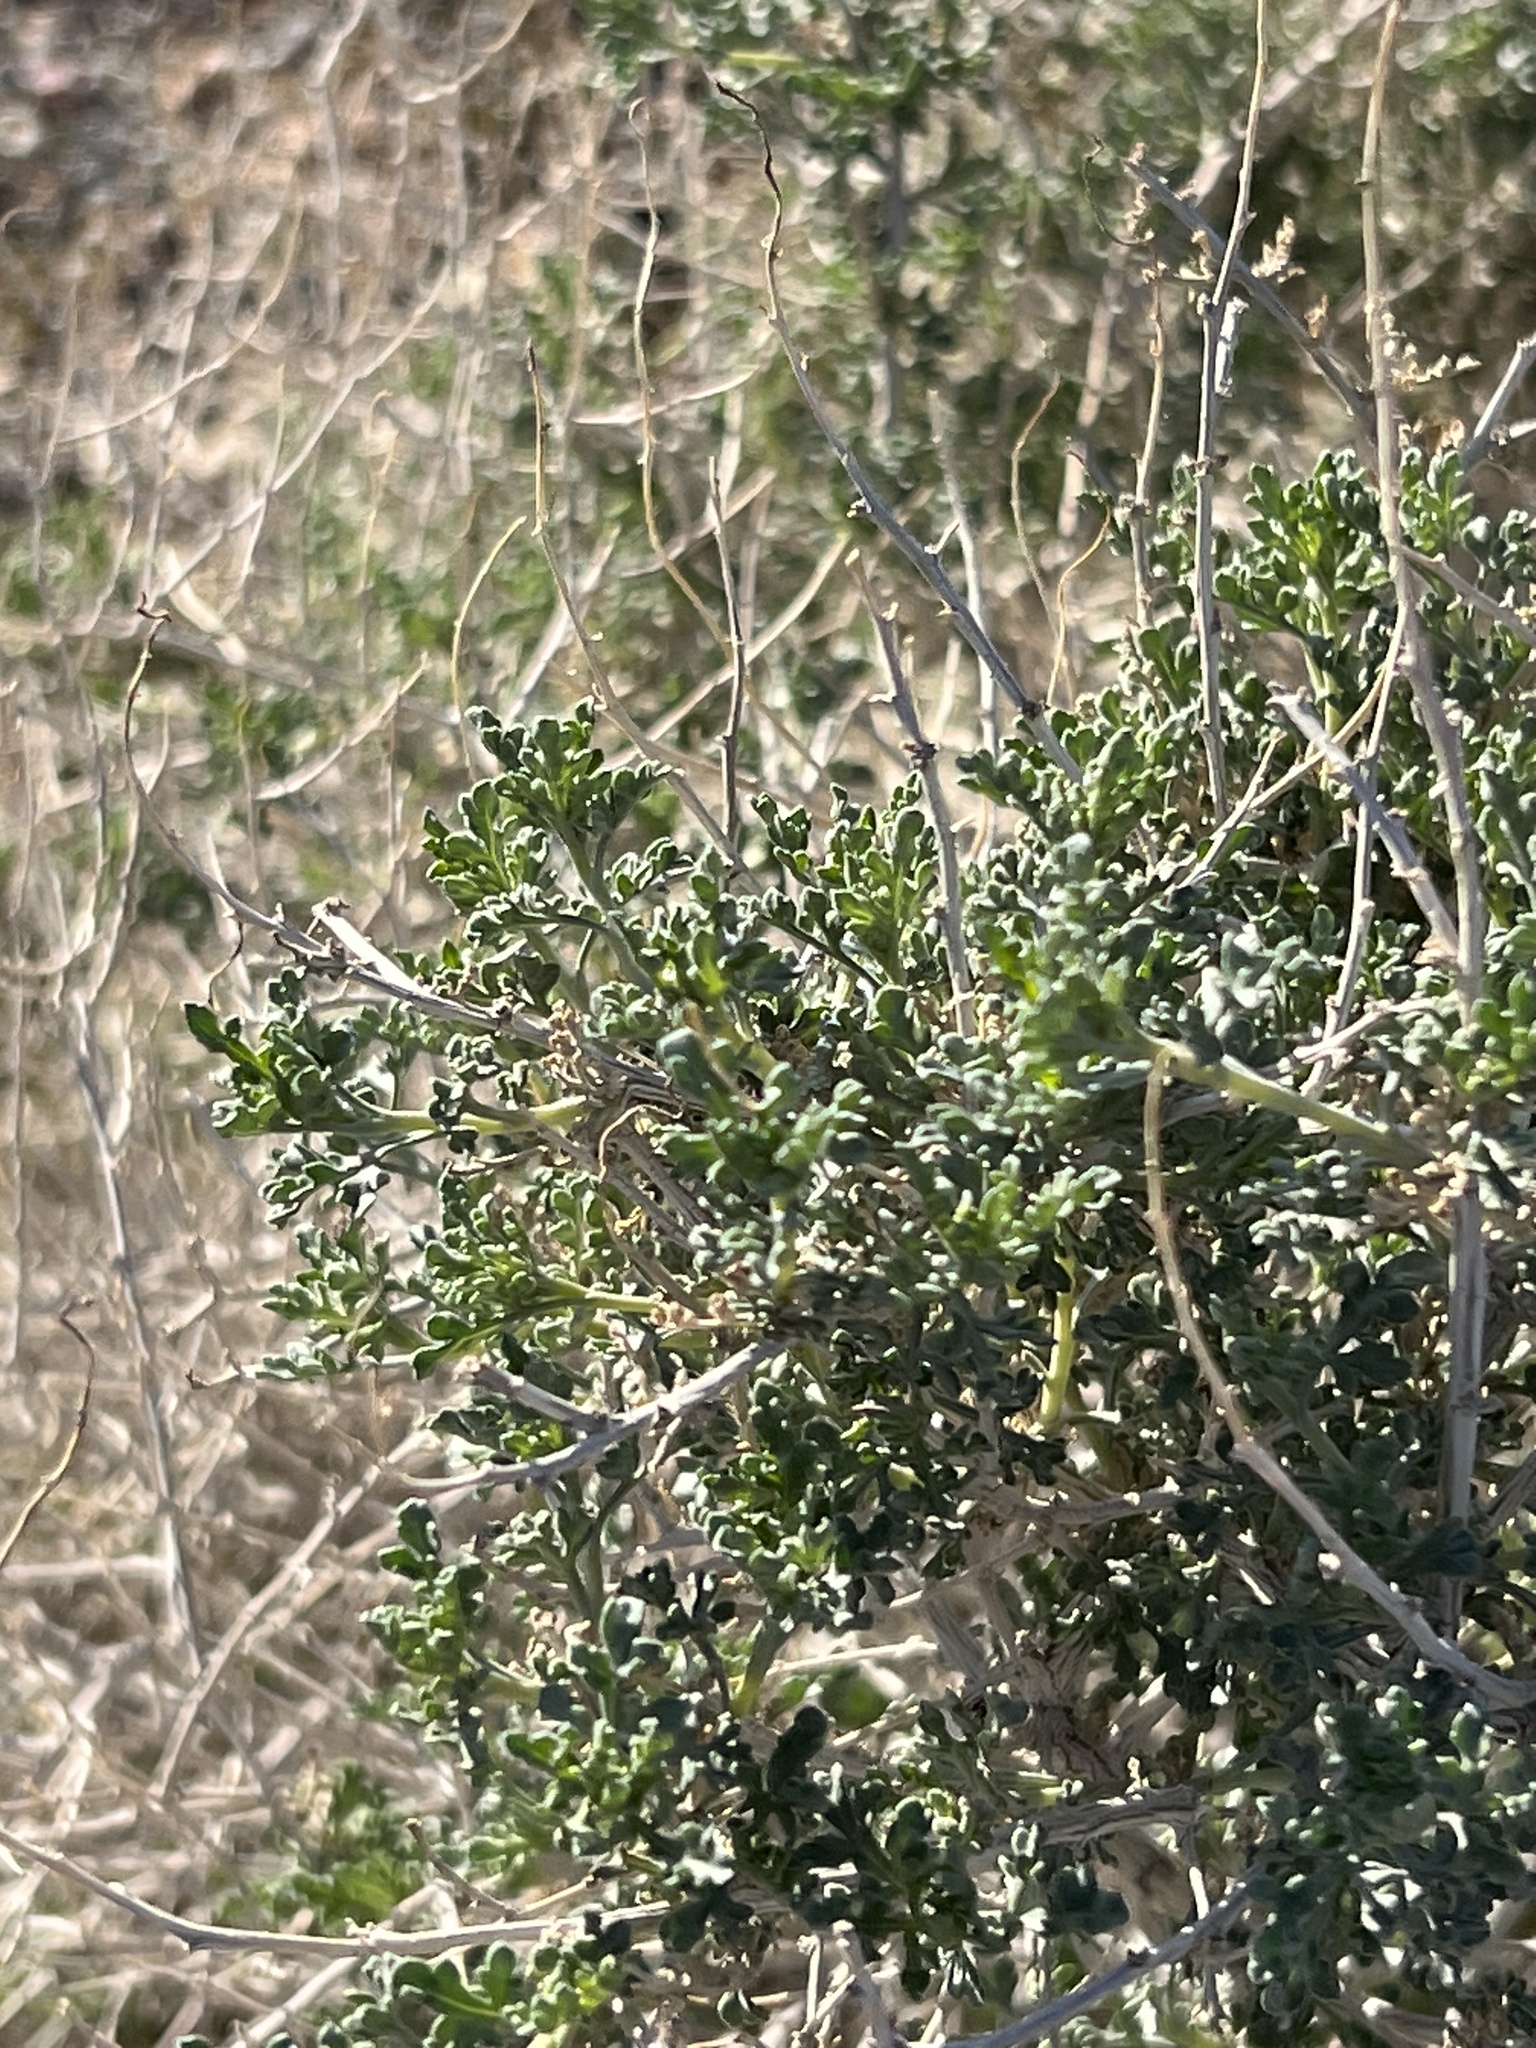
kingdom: Plantae
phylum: Tracheophyta
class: Magnoliopsida
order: Asterales
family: Asteraceae
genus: Ambrosia
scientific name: Ambrosia dumosa
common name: Bur-sage
